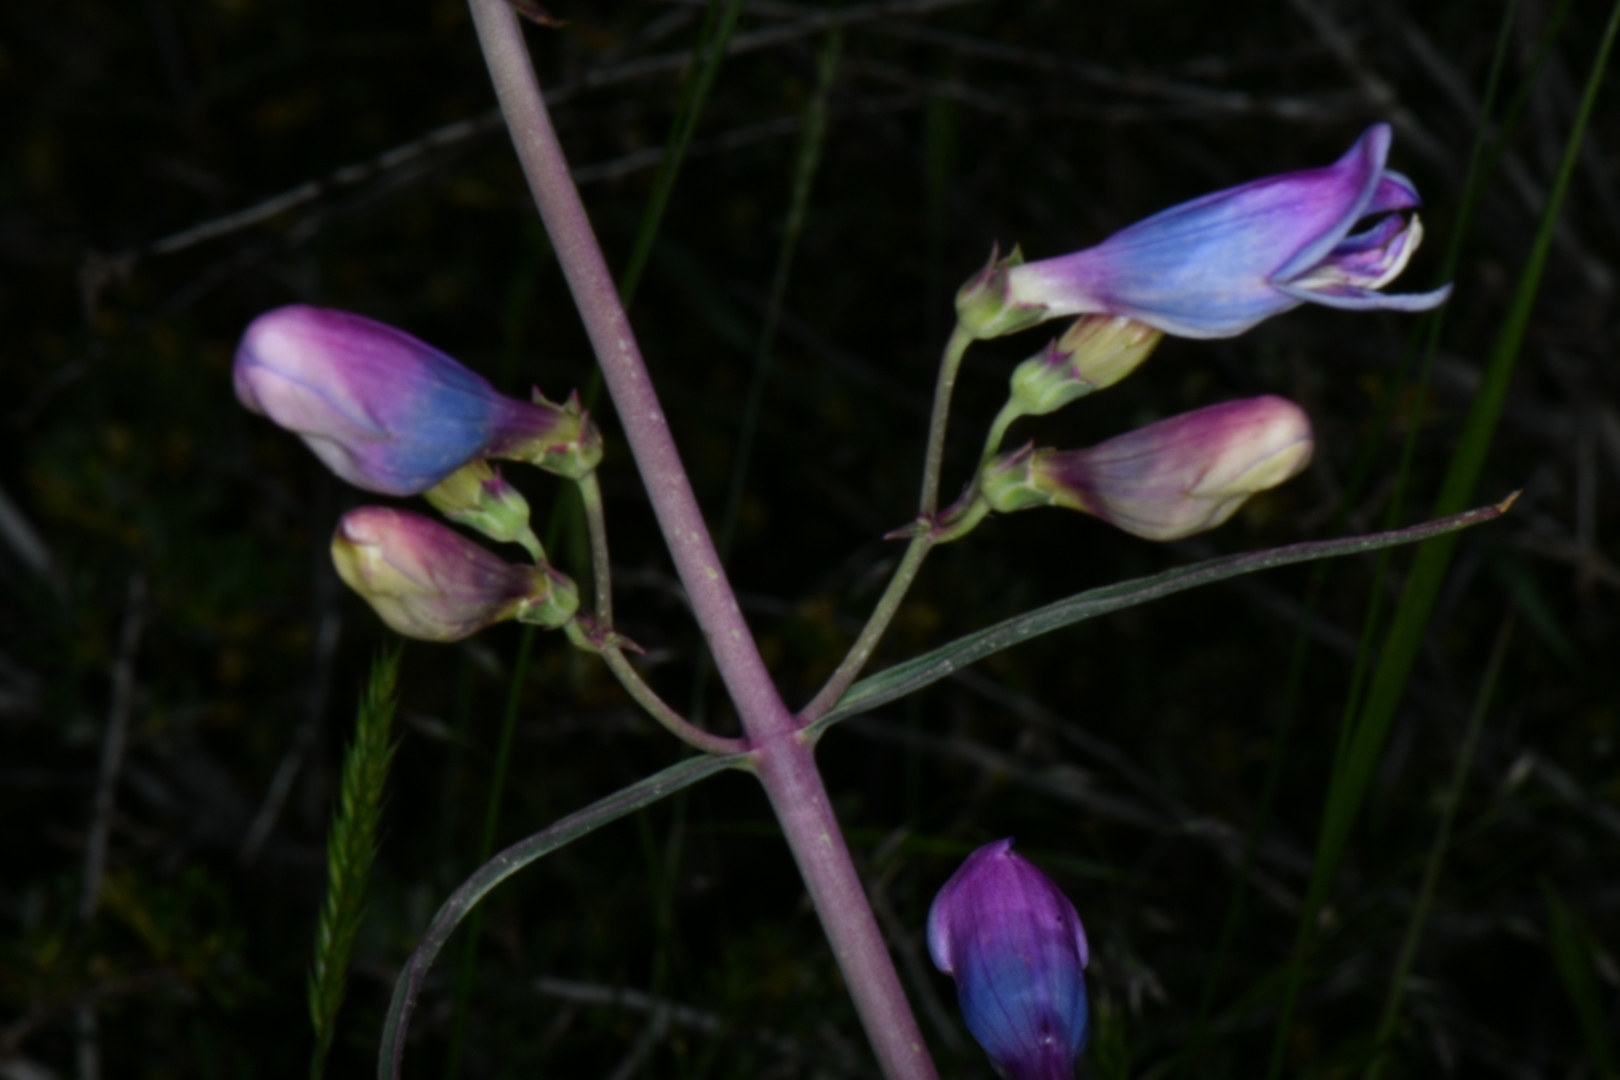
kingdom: Plantae
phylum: Tracheophyta
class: Magnoliopsida
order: Lamiales
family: Plantaginaceae
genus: Penstemon
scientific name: Penstemon comarrhenus
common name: Dusty penstemon
